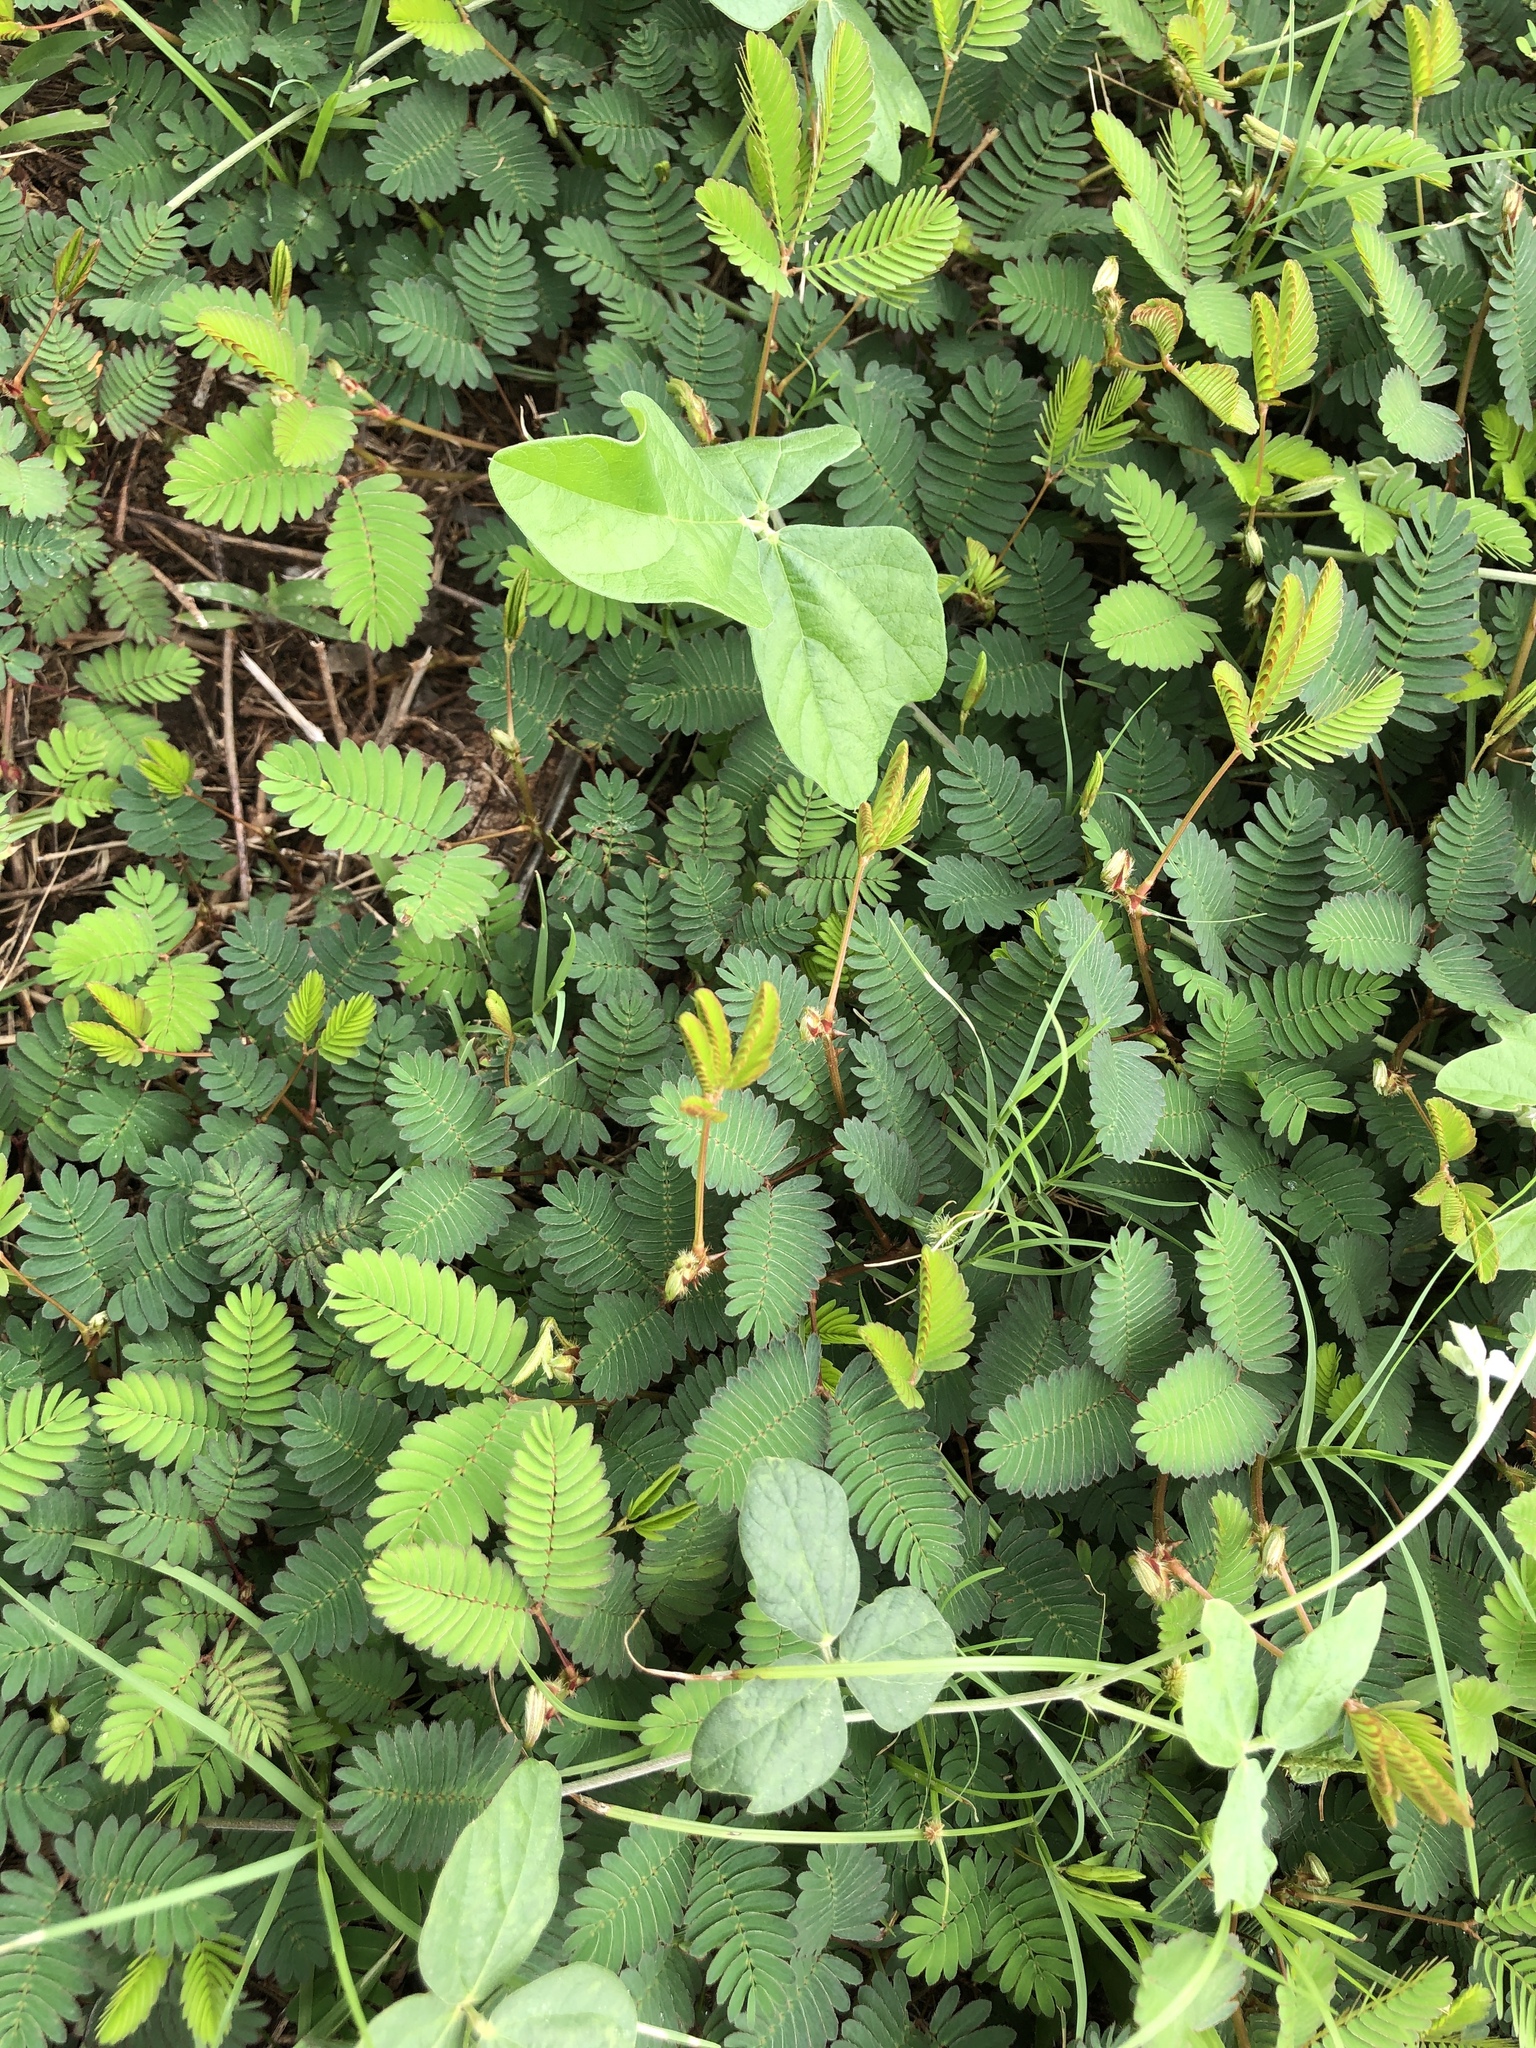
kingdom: Plantae
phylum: Tracheophyta
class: Magnoliopsida
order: Fabales
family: Fabaceae
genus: Mimosa
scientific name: Mimosa pudica
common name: Sensitive plant
